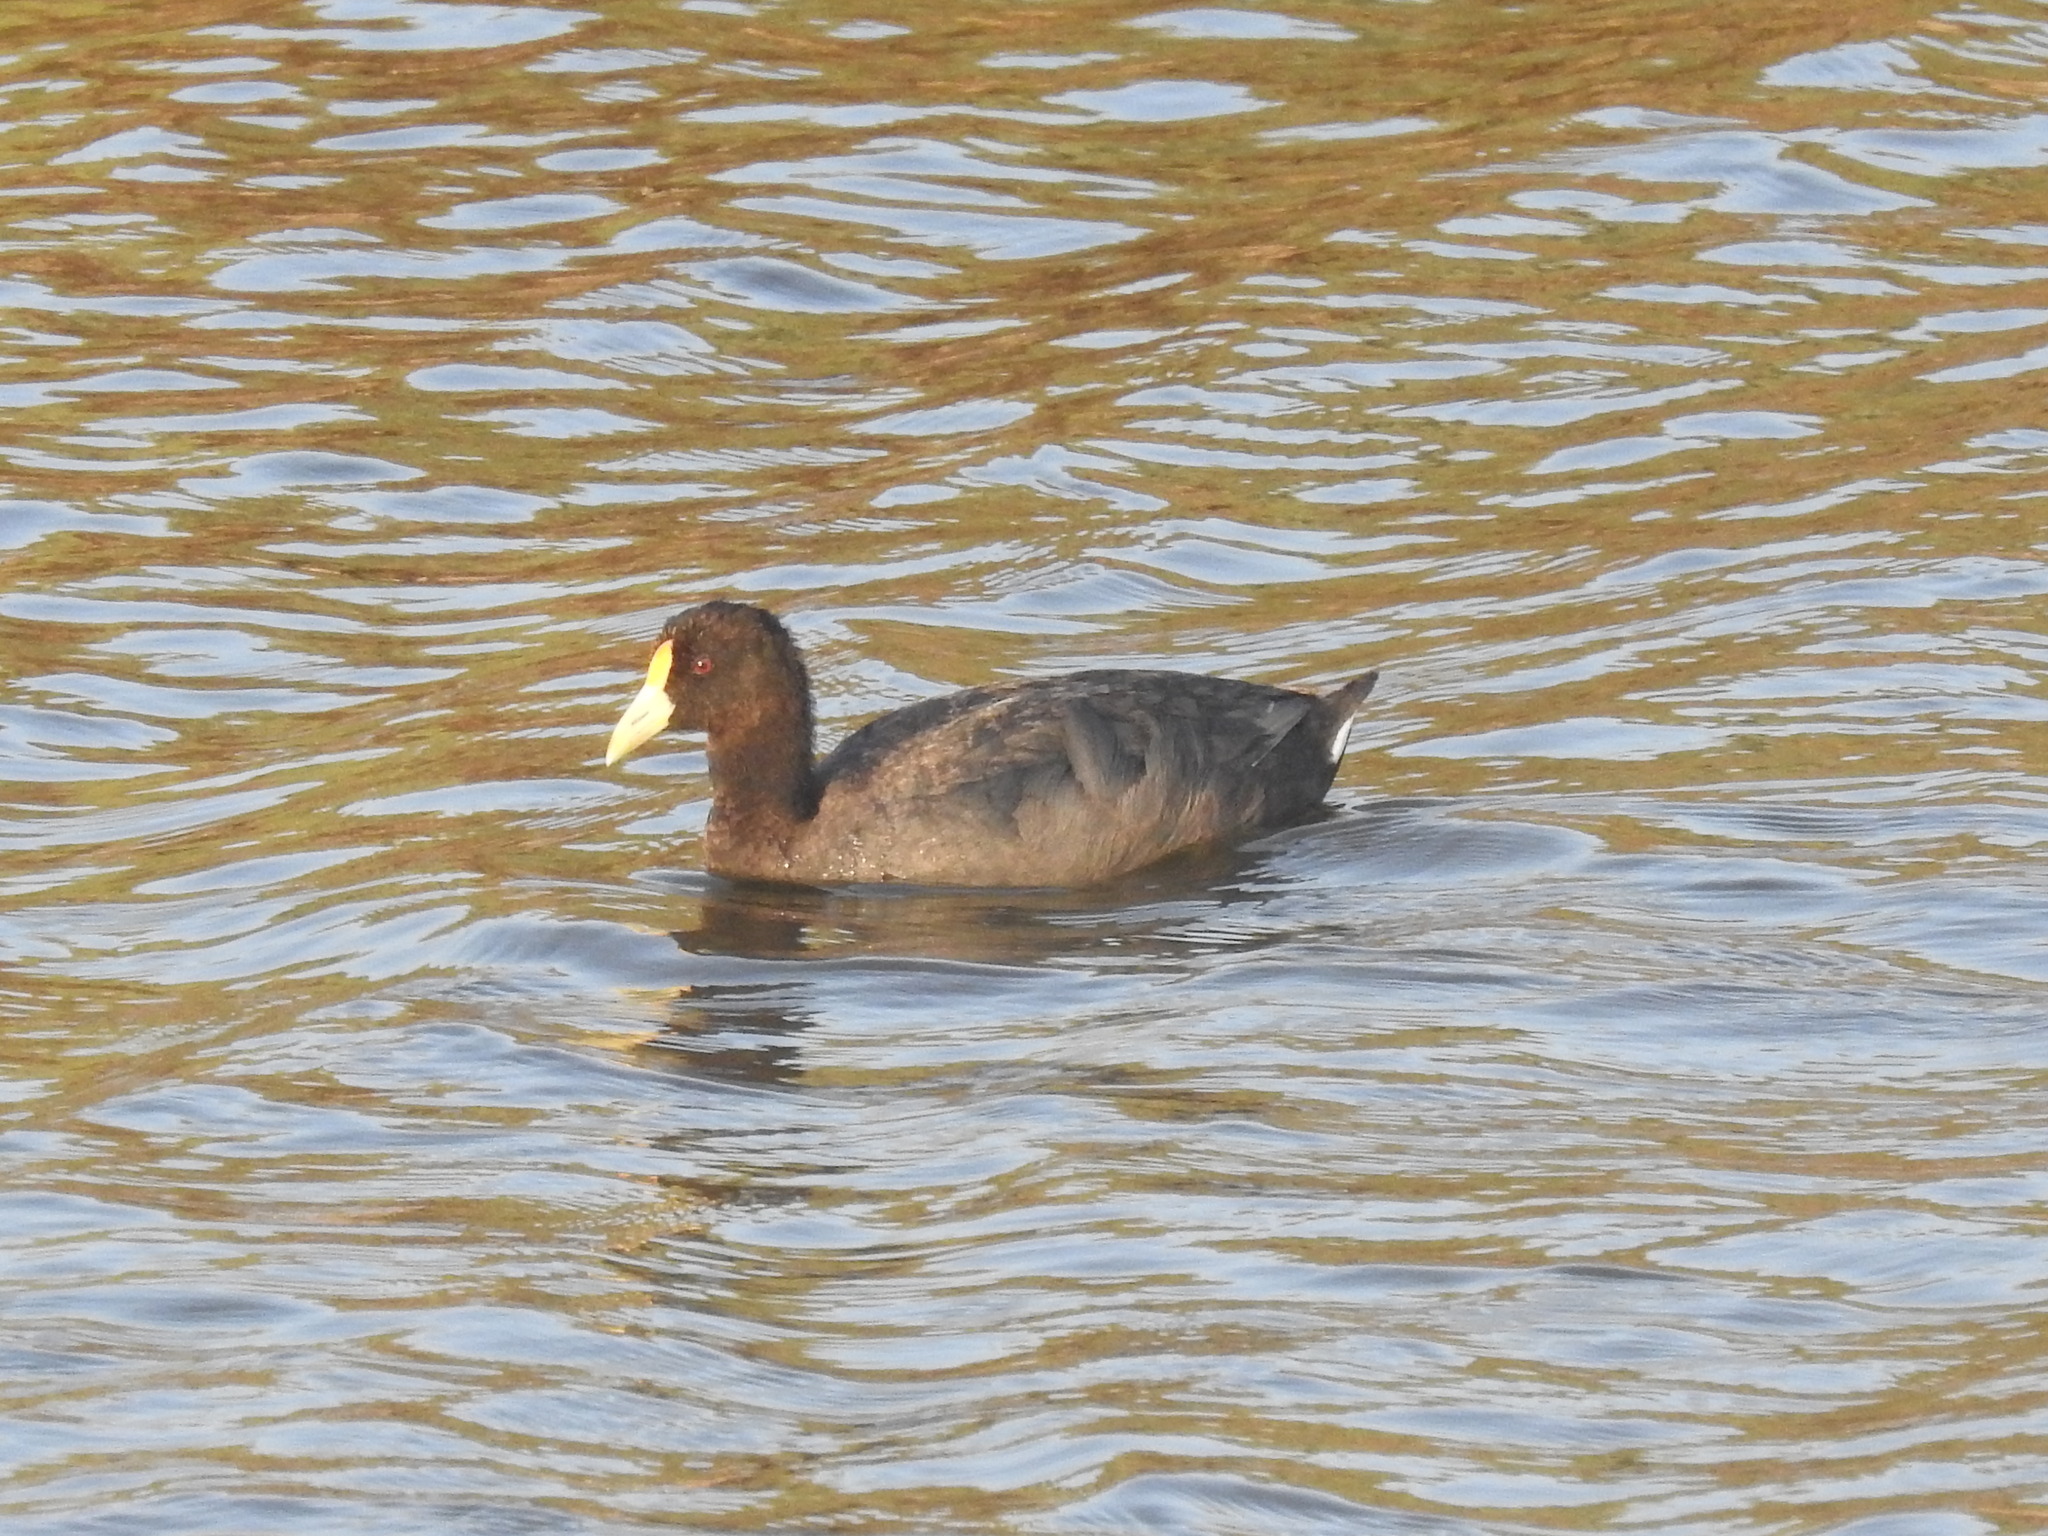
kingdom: Animalia
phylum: Chordata
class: Aves
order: Gruiformes
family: Rallidae
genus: Fulica
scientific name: Fulica leucoptera
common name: White-winged coot
